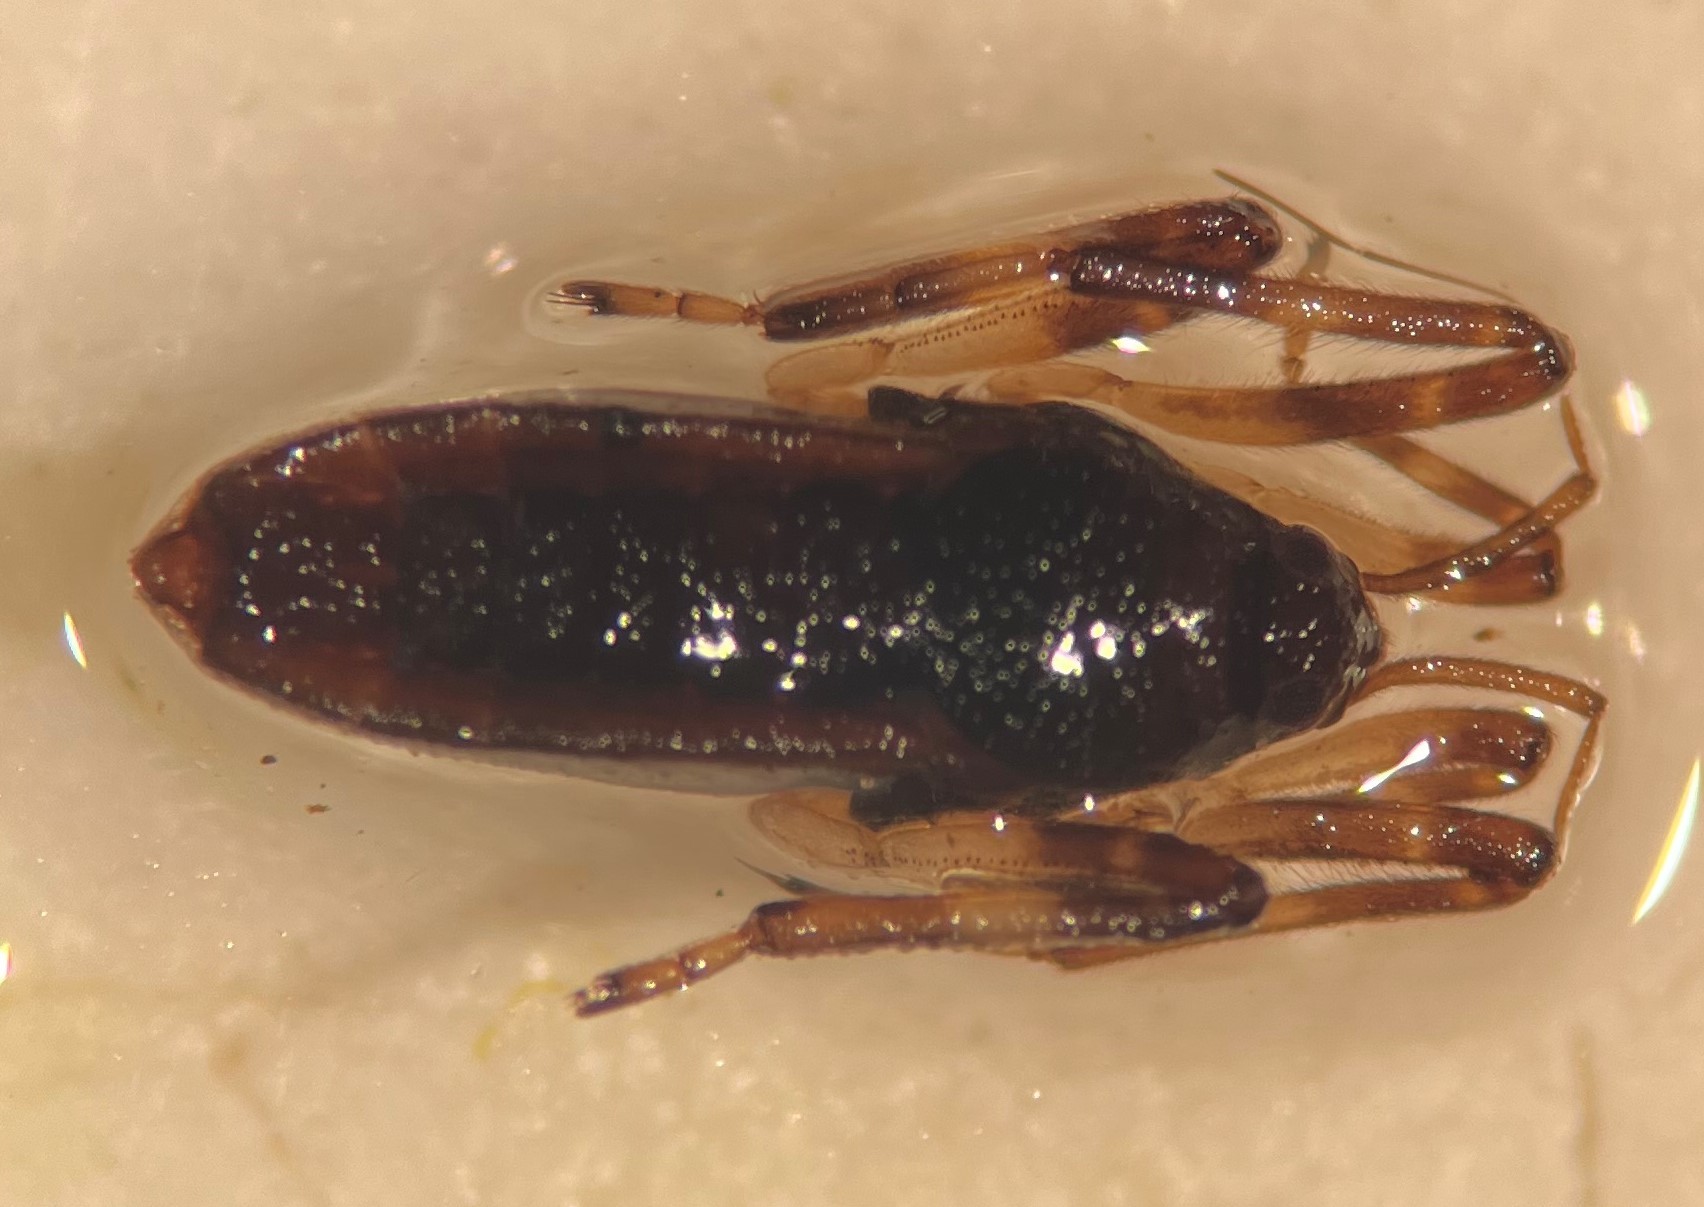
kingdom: Animalia
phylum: Arthropoda
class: Insecta
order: Hemiptera
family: Veliidae
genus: Platyvelia
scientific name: Platyvelia brachialis
